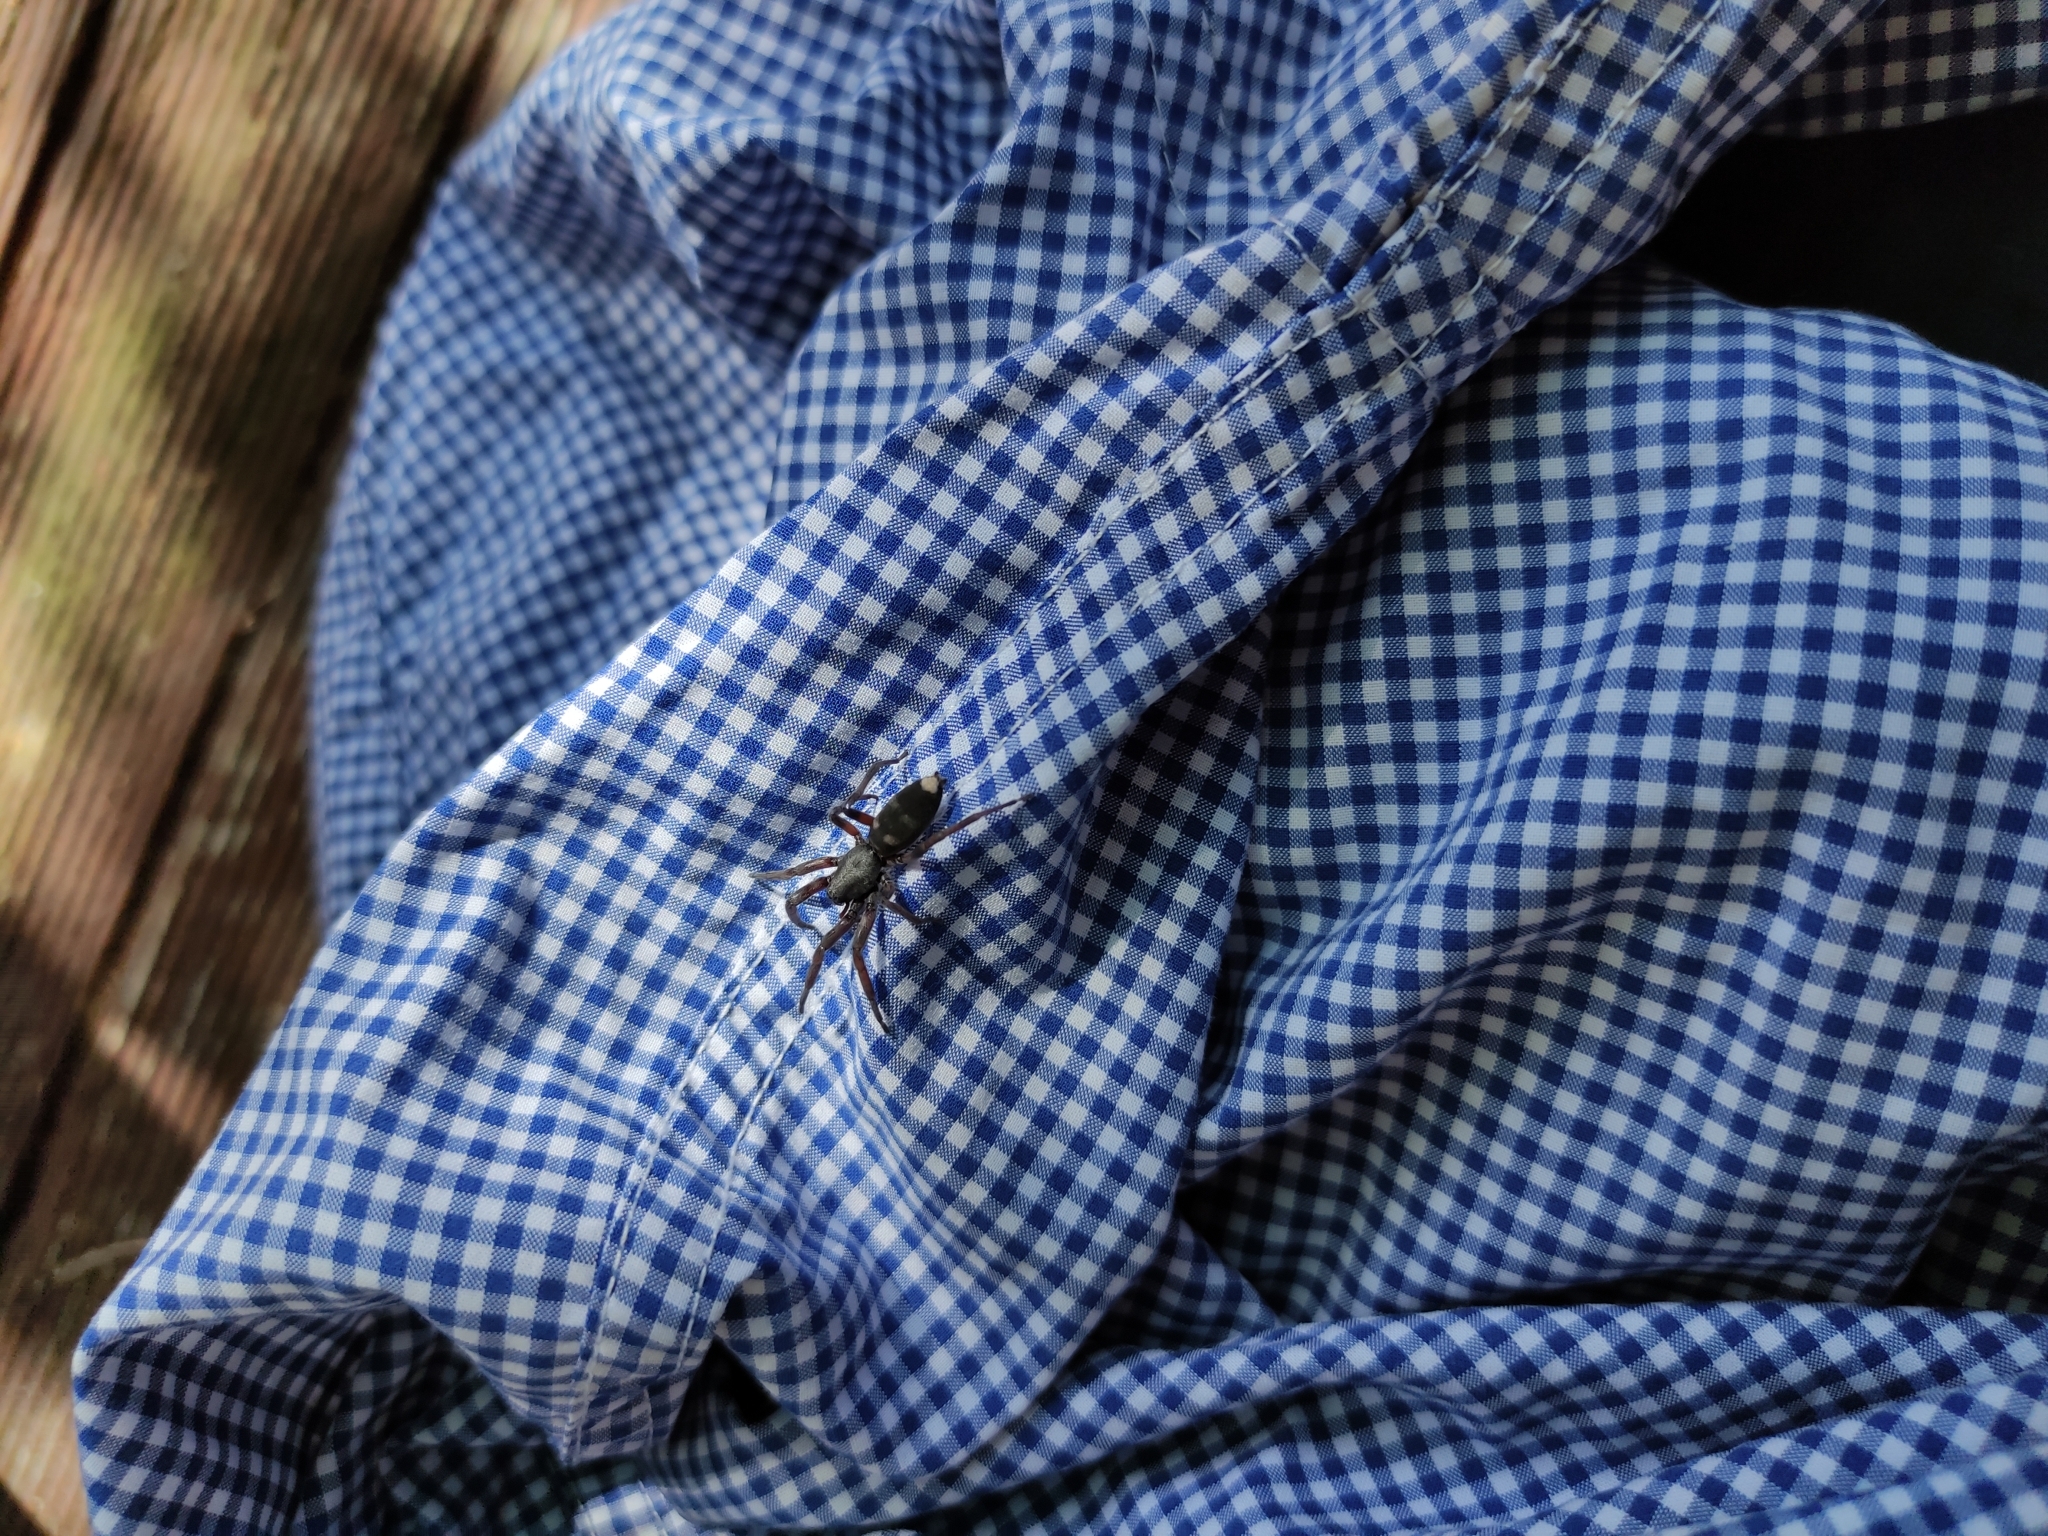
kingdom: Animalia
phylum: Arthropoda
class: Arachnida
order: Araneae
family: Lamponidae
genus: Lampona
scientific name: Lampona cylindrata
